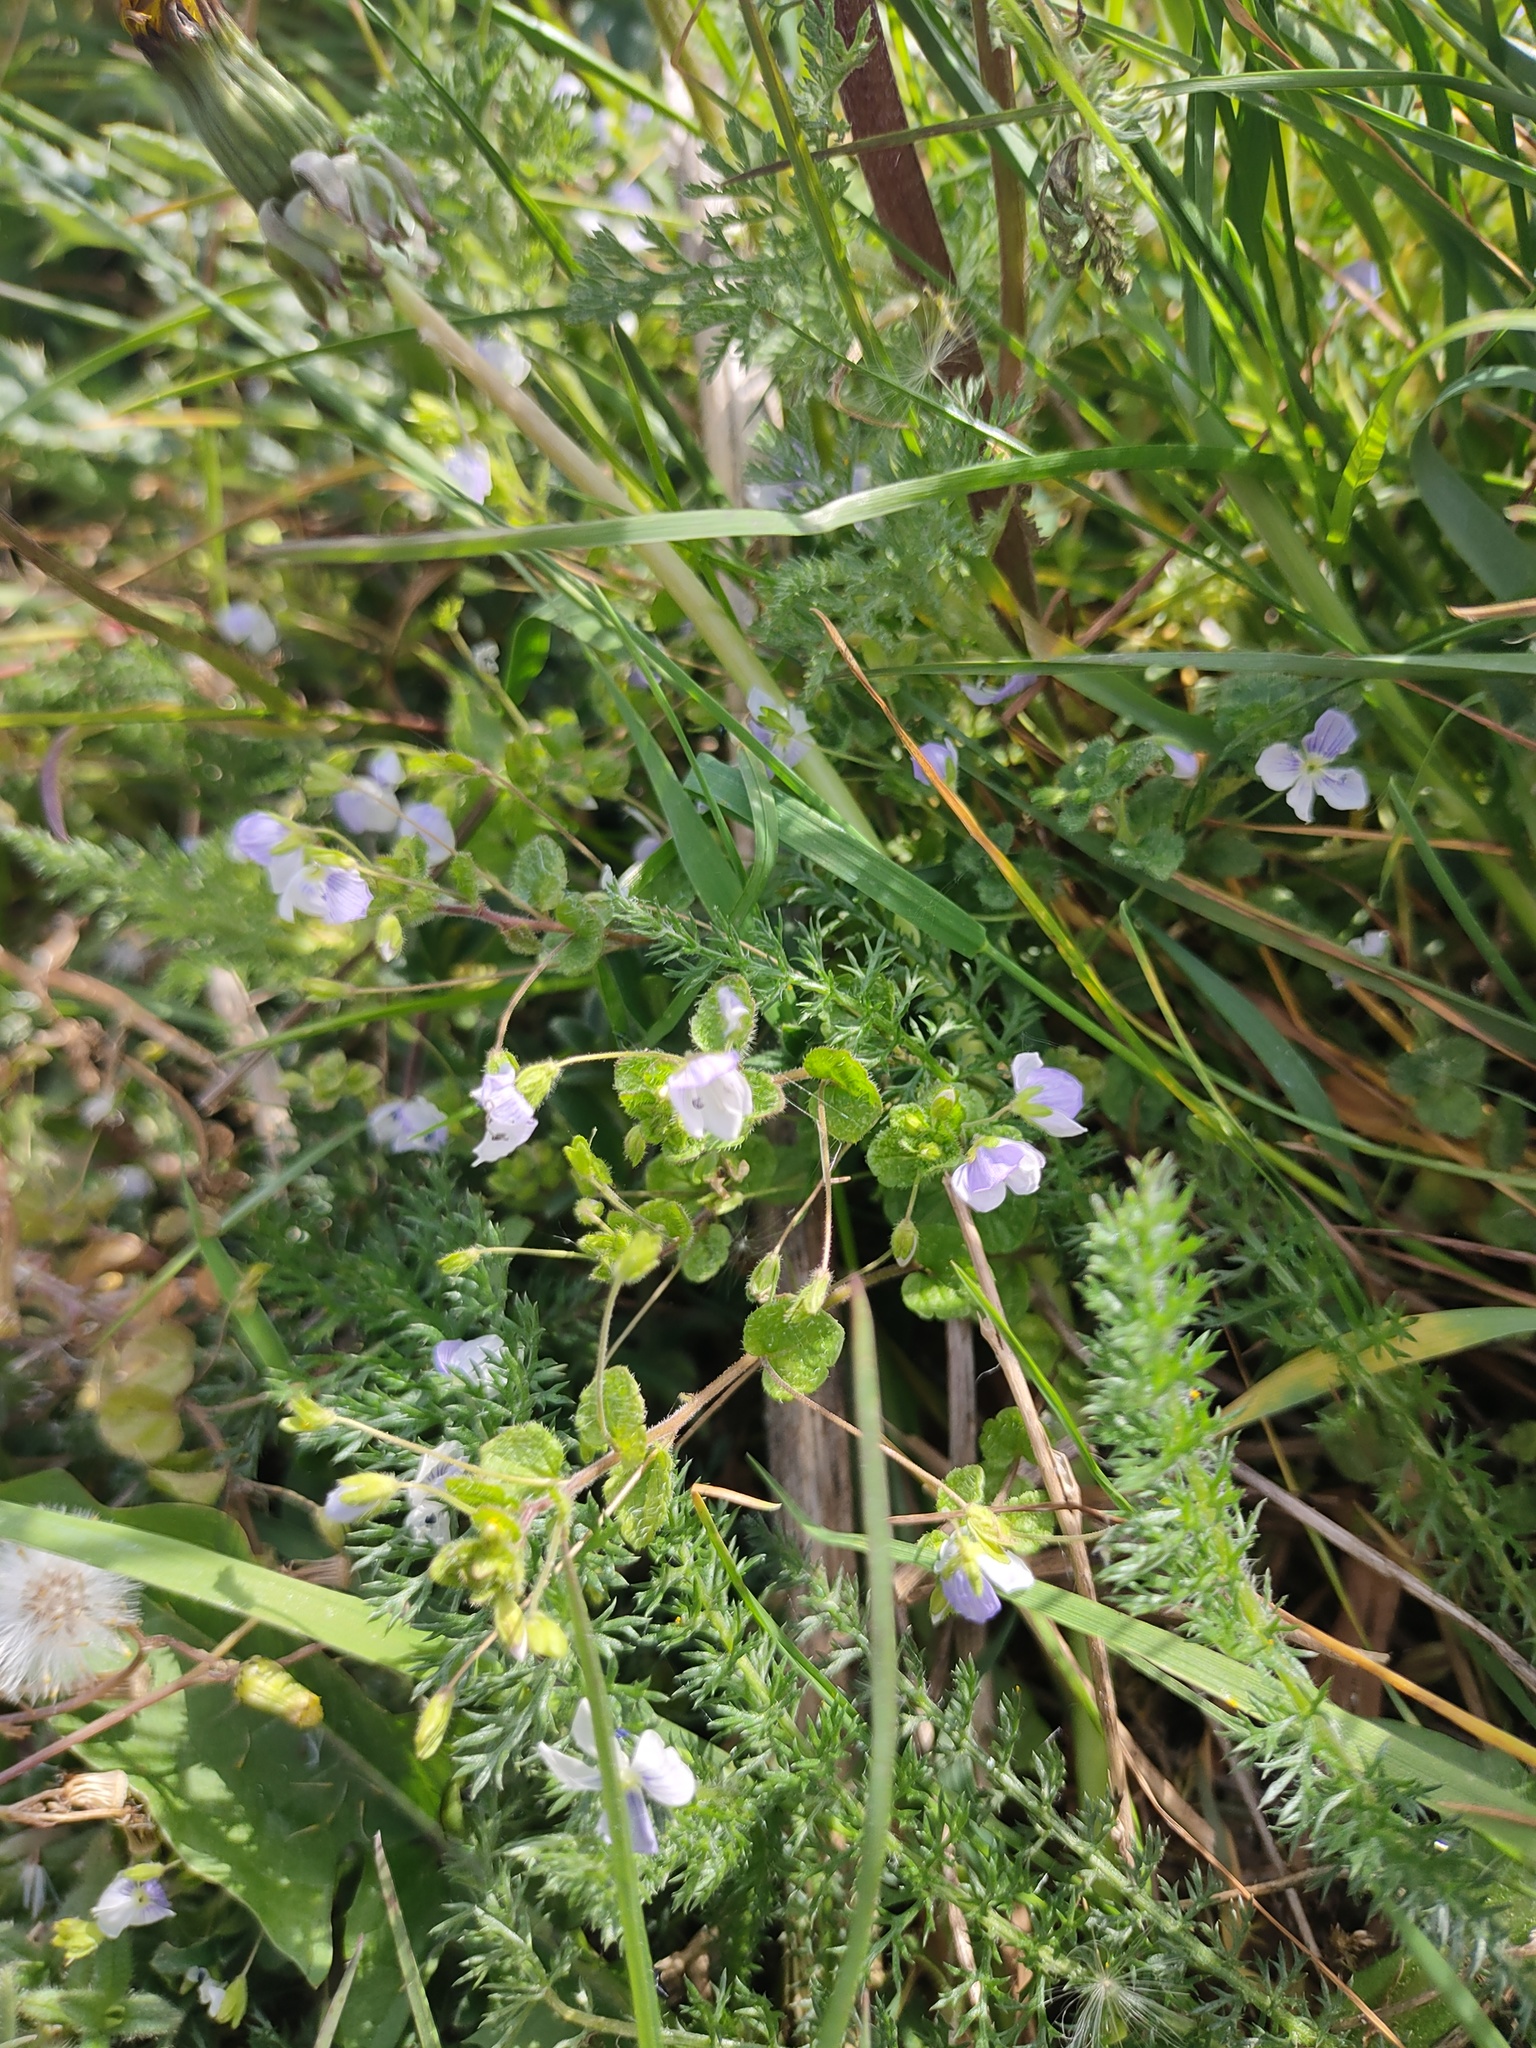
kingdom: Plantae
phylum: Tracheophyta
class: Magnoliopsida
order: Lamiales
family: Plantaginaceae
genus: Veronica
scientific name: Veronica filiformis
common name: Slender speedwell
